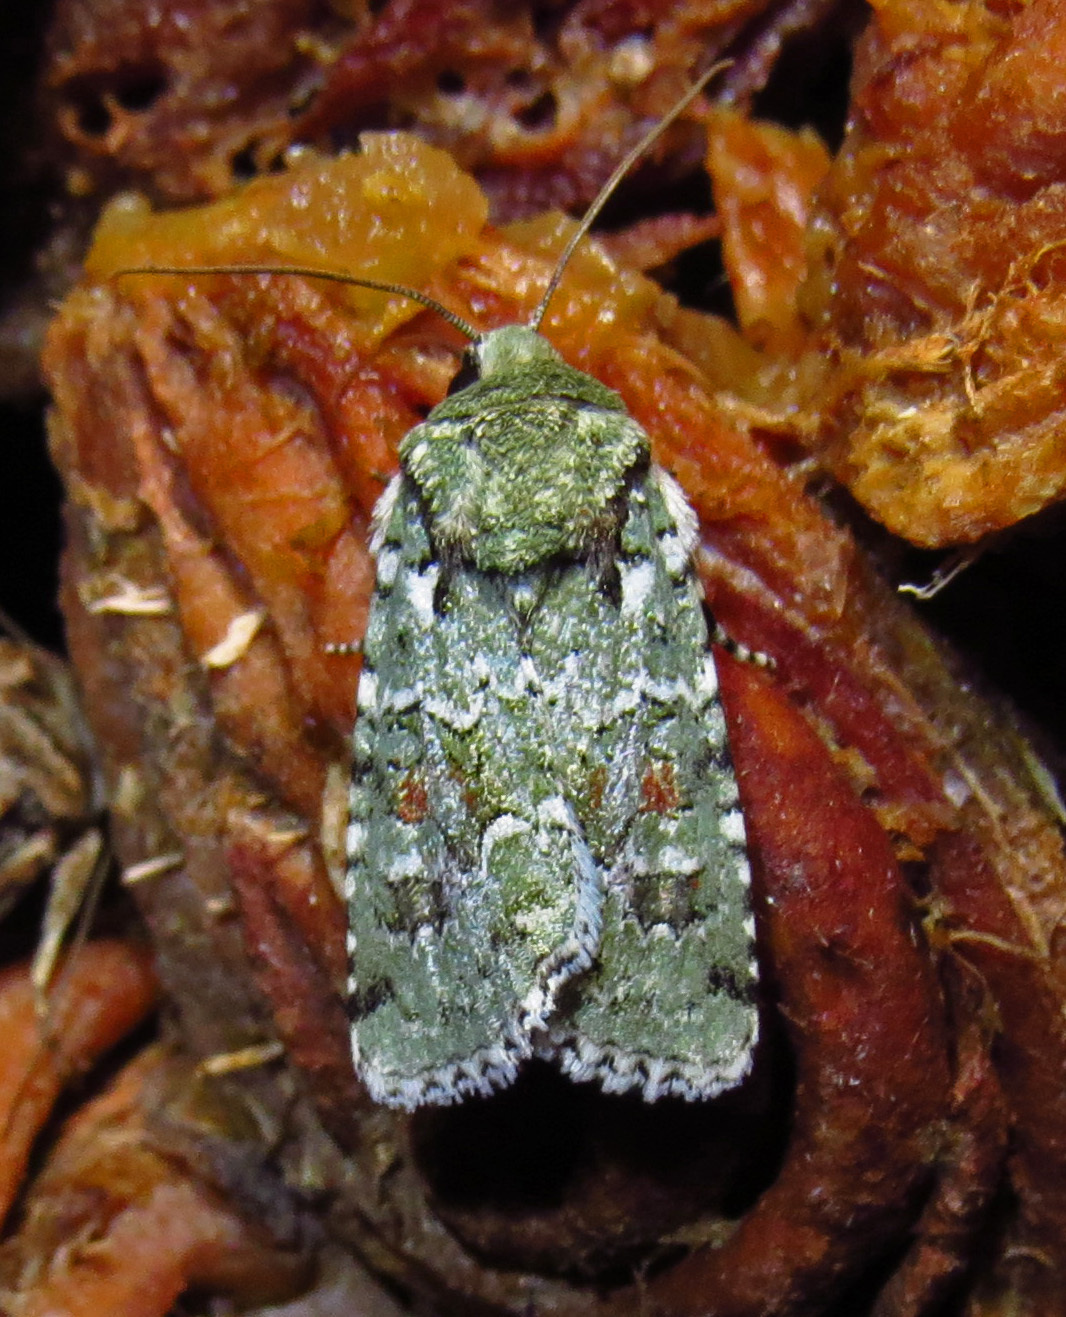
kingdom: Animalia
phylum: Arthropoda
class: Insecta
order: Lepidoptera
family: Noctuidae
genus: Lacinipolia
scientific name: Lacinipolia laudabilis
